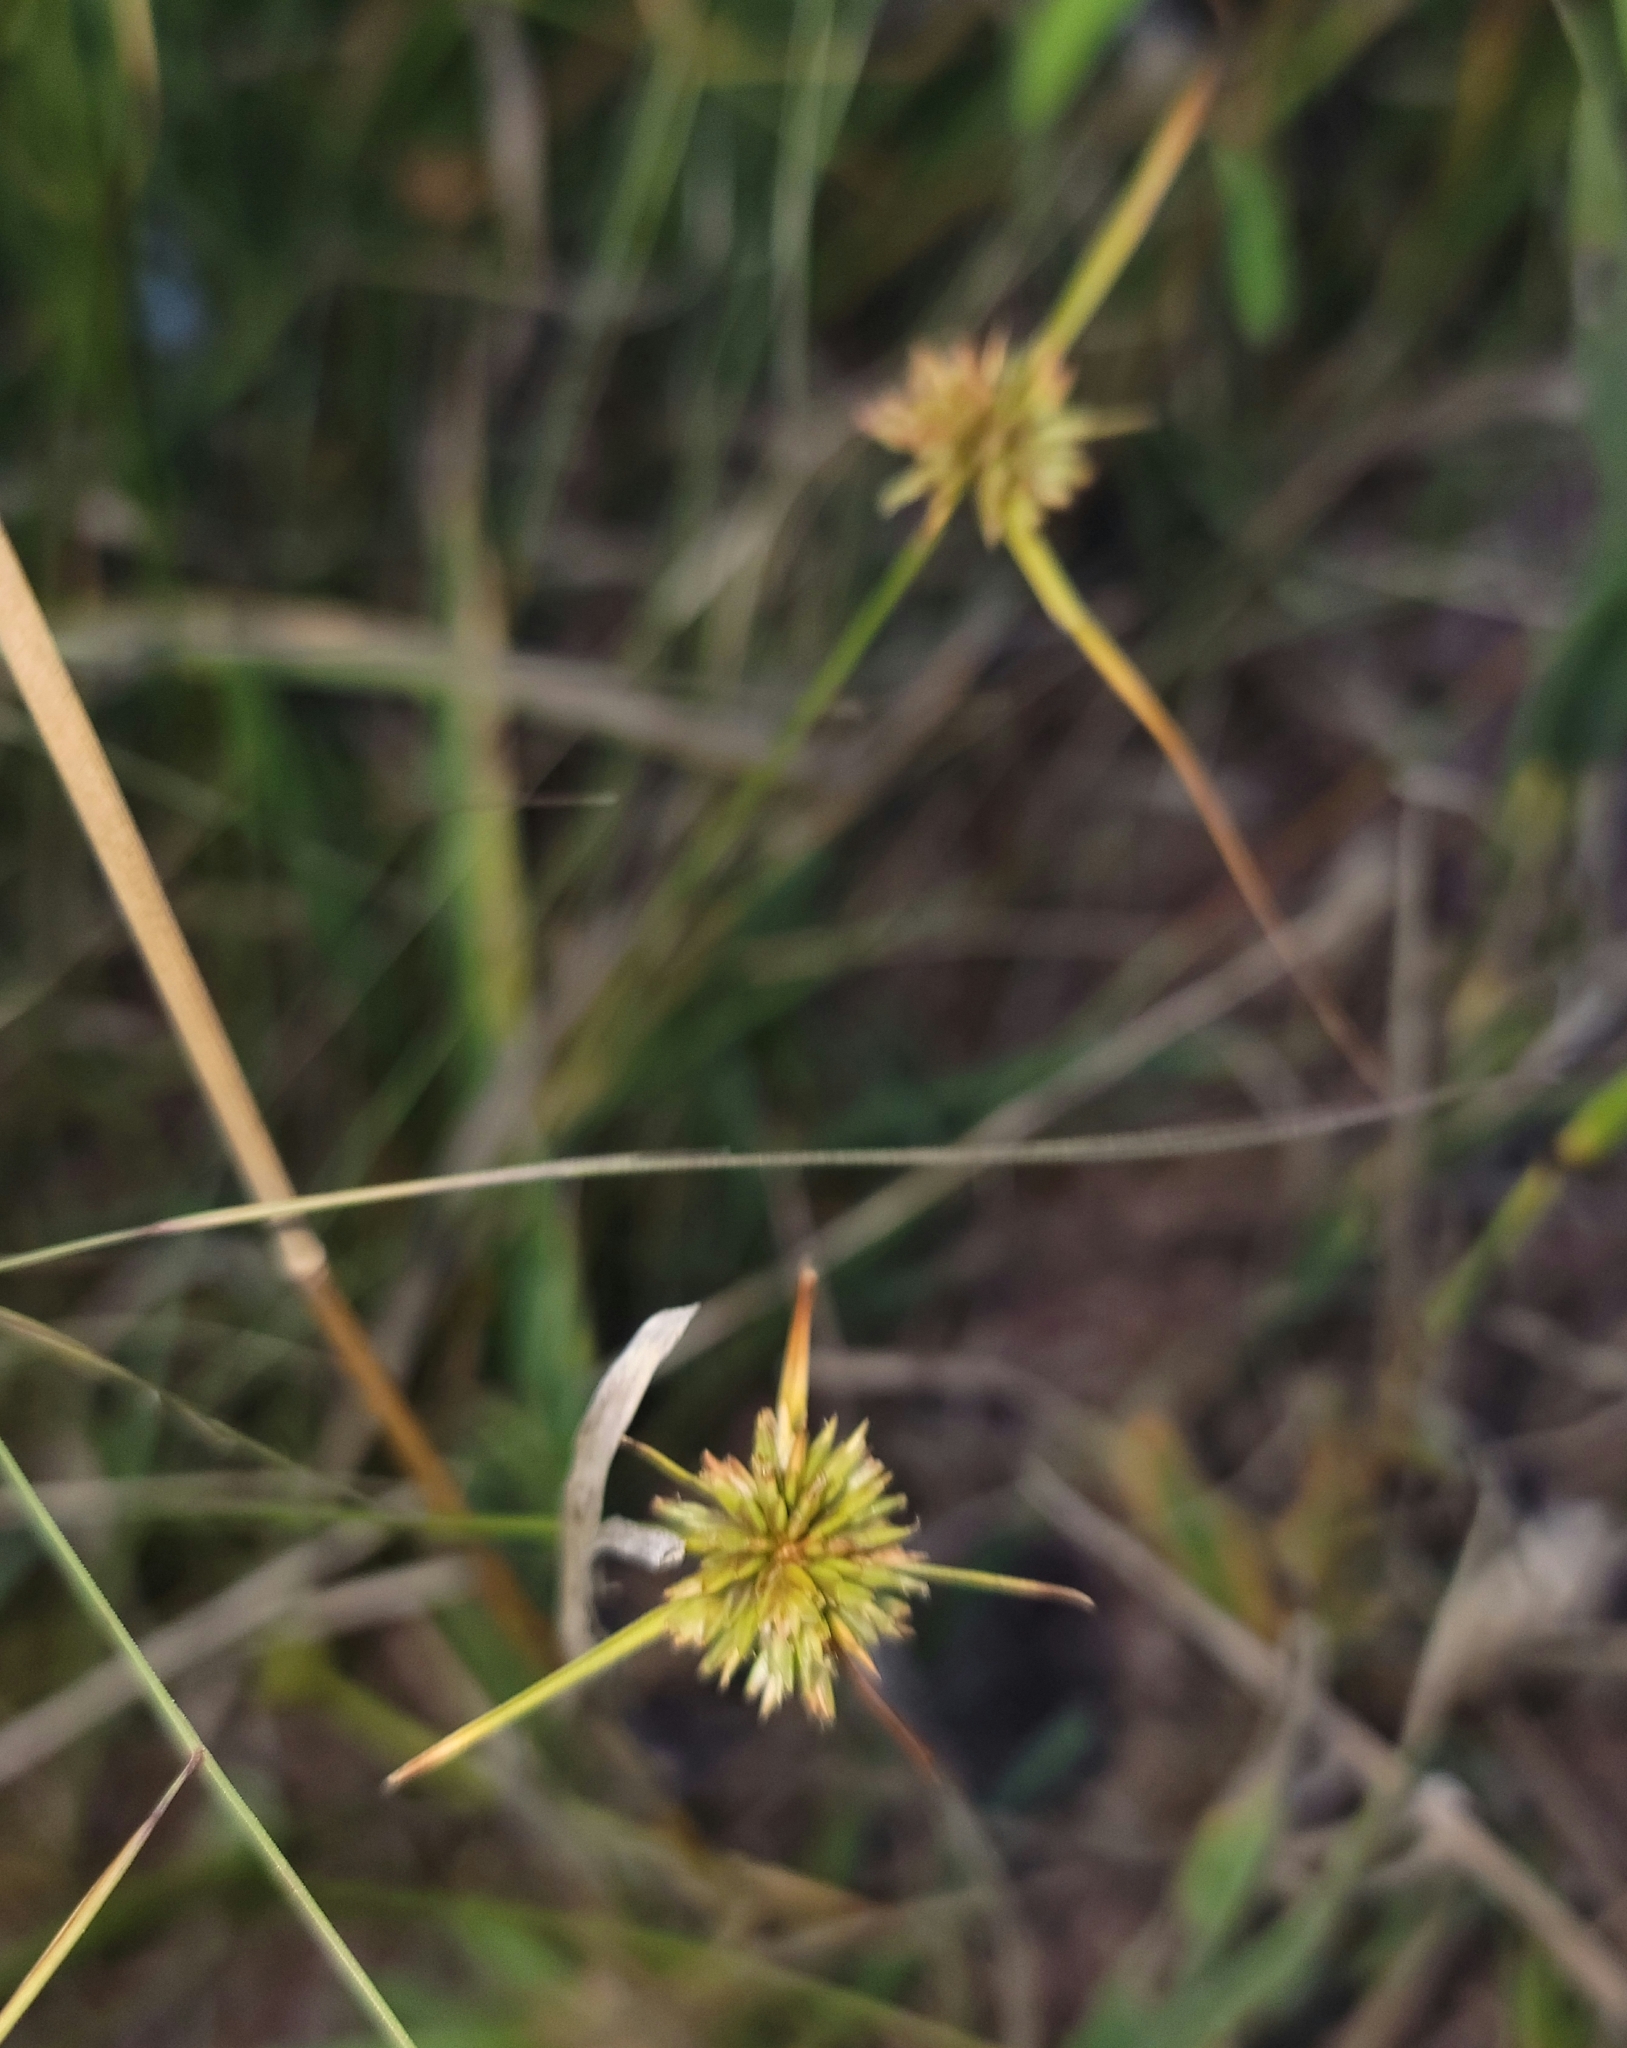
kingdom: Plantae
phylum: Tracheophyta
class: Liliopsida
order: Poales
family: Cyperaceae
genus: Cyperus
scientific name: Cyperus acuminatus
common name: Short-pointed cyperus
